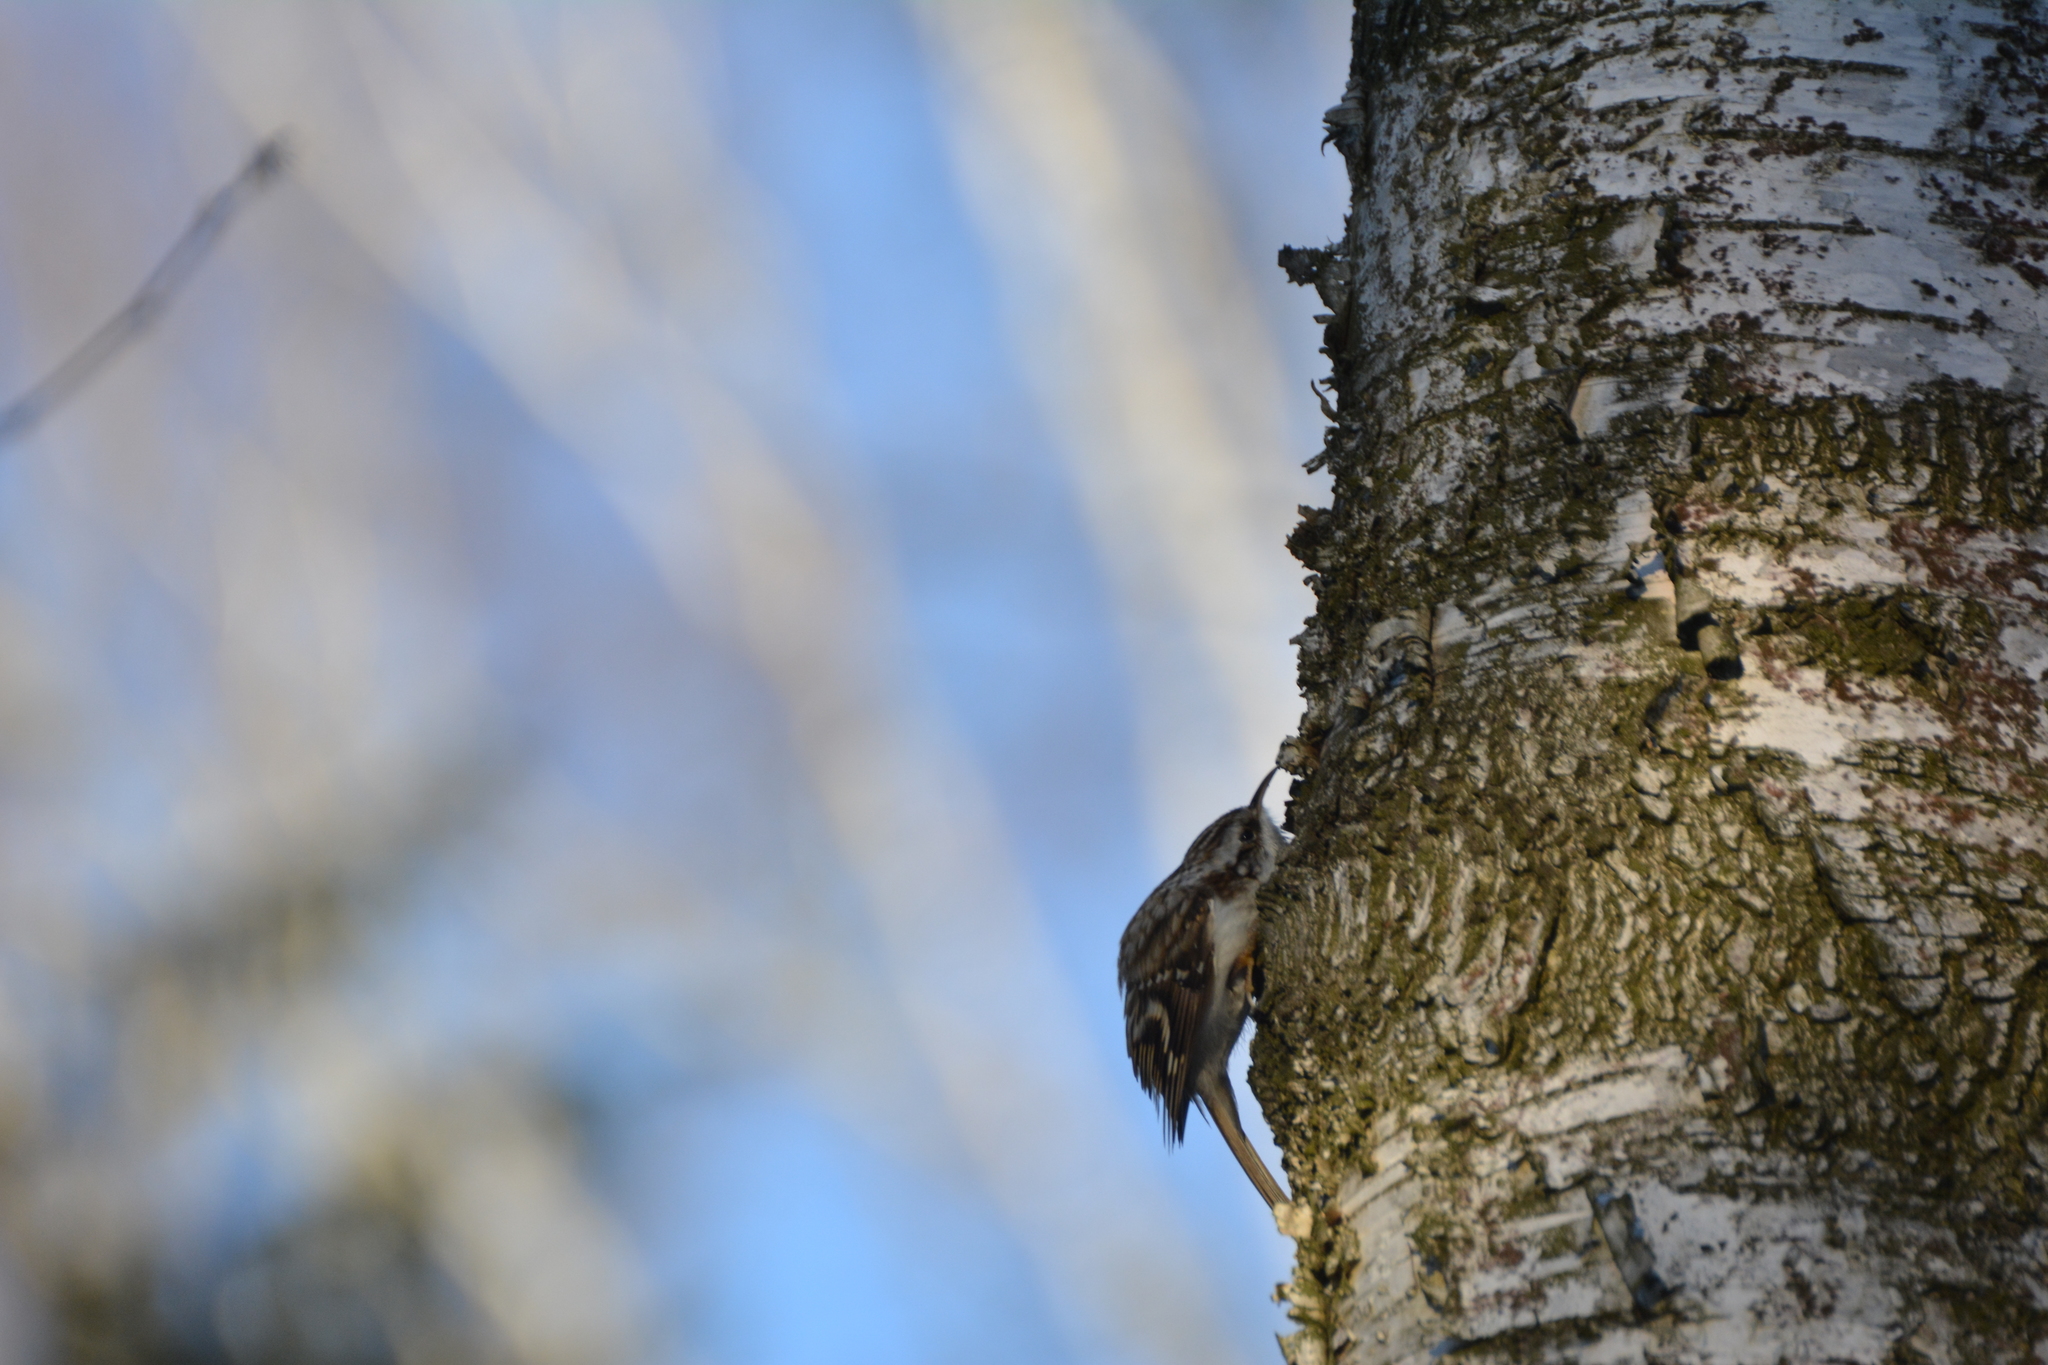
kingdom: Animalia
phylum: Chordata
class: Aves
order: Passeriformes
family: Certhiidae
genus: Certhia
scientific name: Certhia familiaris
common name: Eurasian treecreeper
